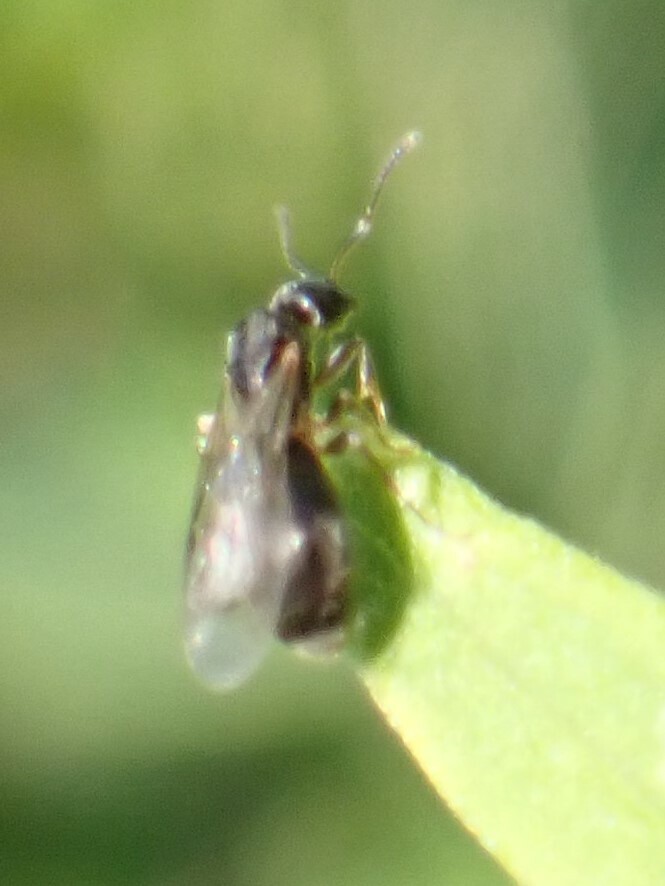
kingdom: Animalia
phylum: Arthropoda
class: Insecta
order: Hymenoptera
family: Formicidae
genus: Tapinoma
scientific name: Tapinoma sessile
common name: Odorous house ant
